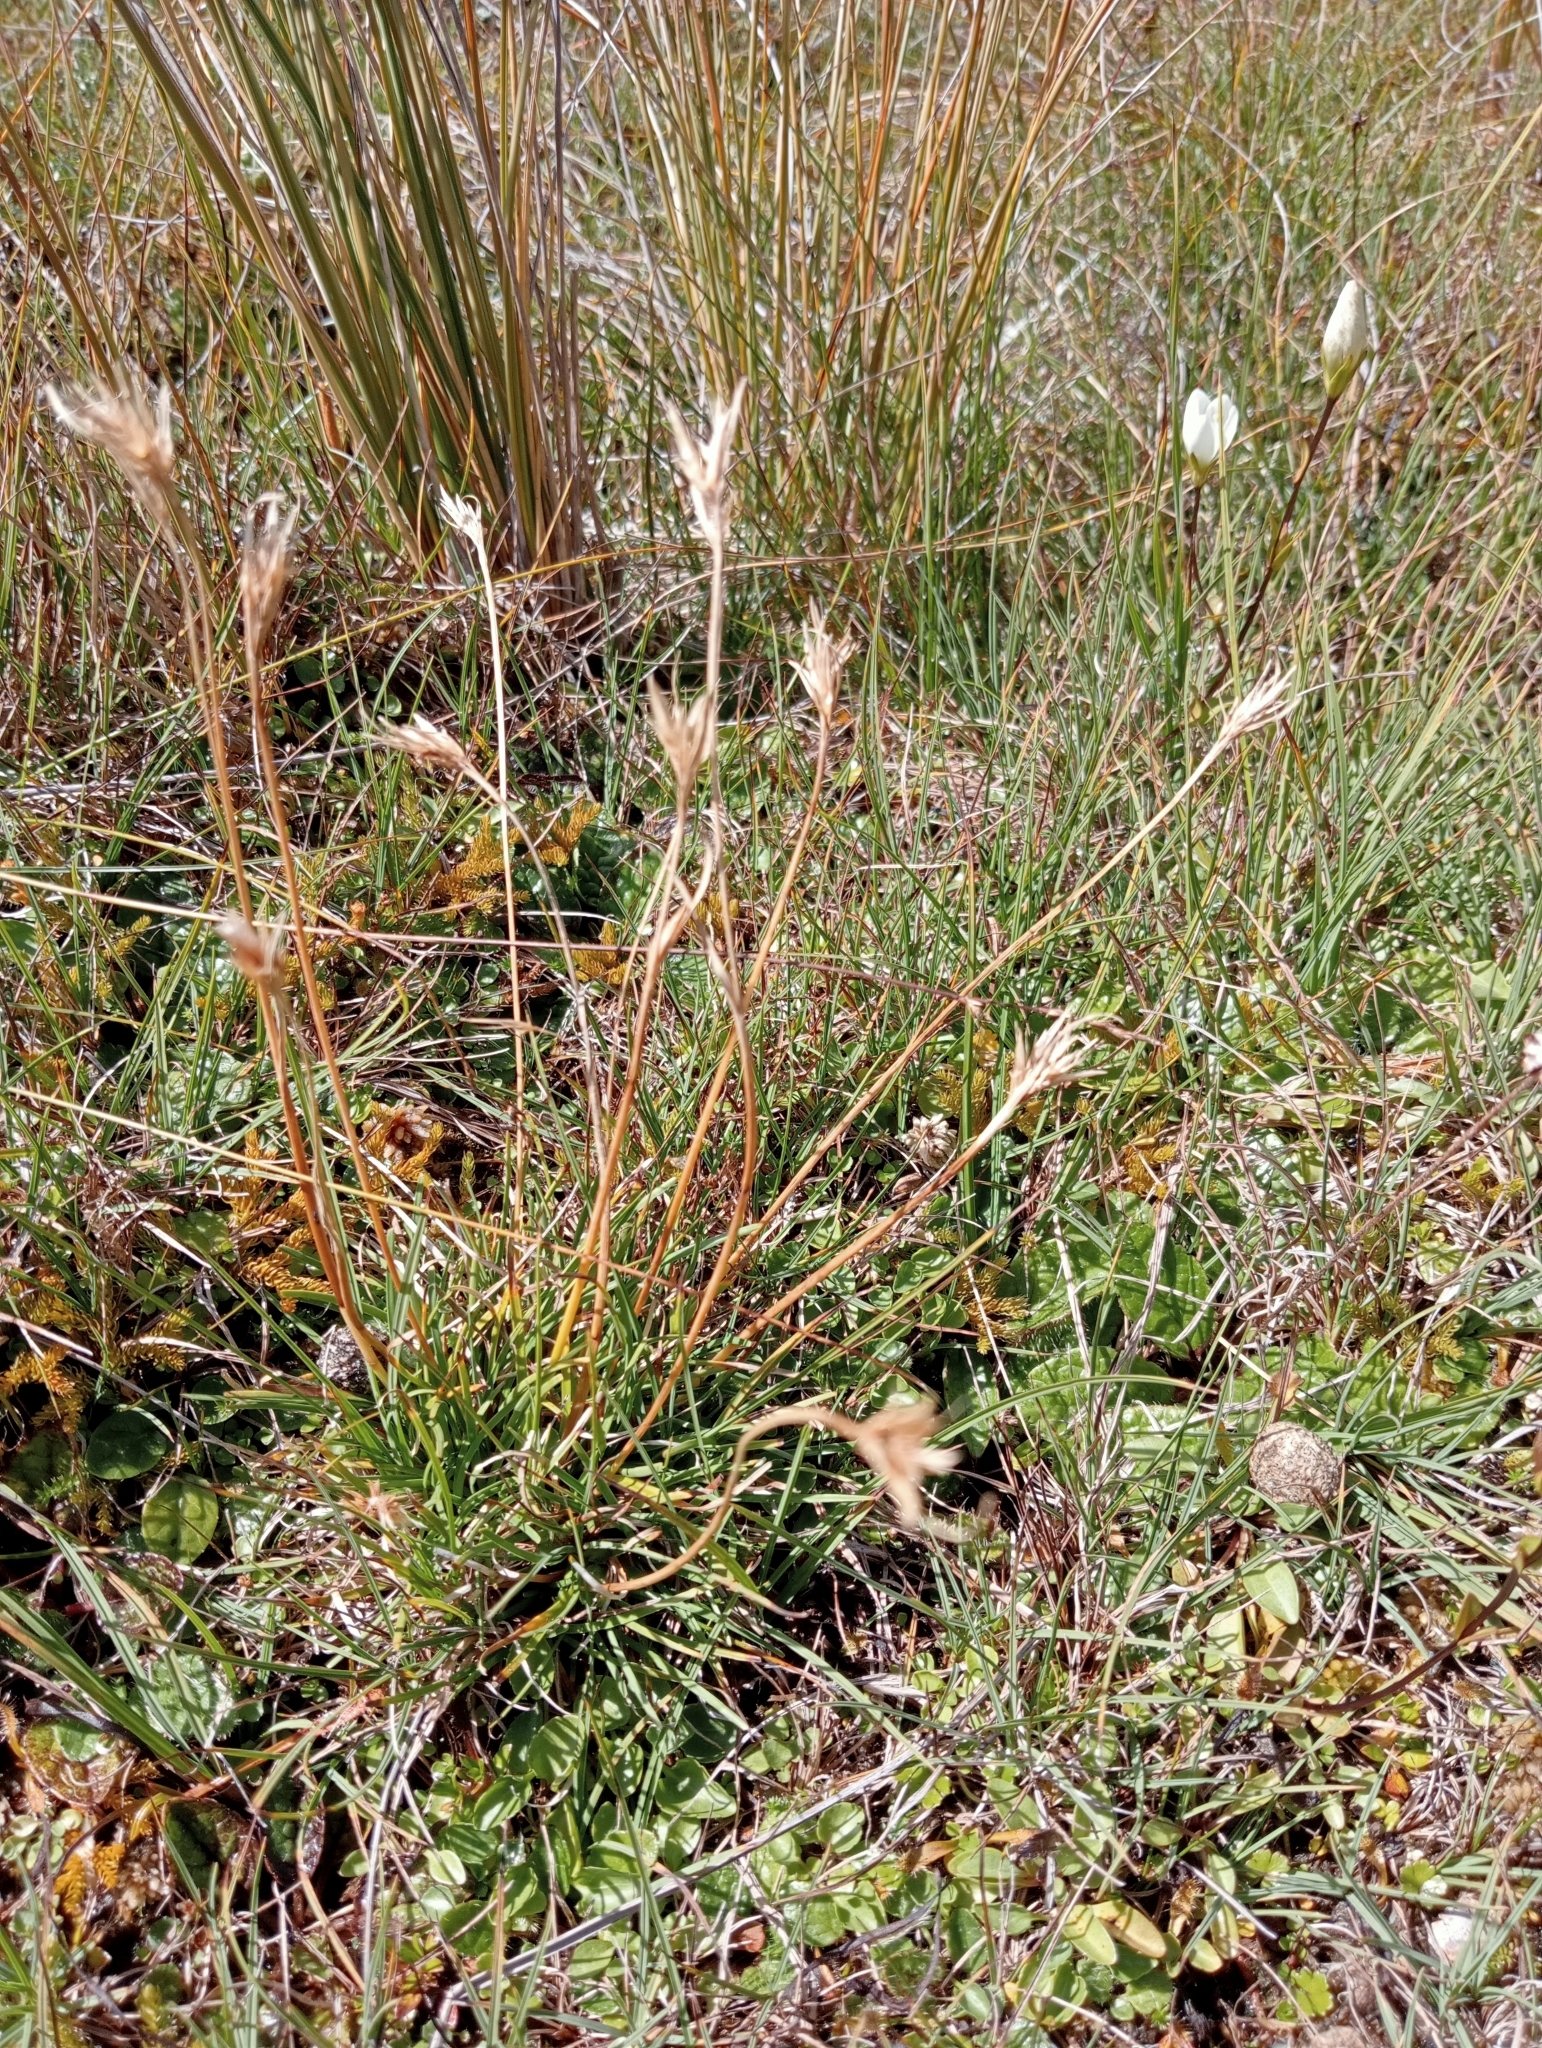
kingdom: Plantae
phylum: Tracheophyta
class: Liliopsida
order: Poales
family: Cyperaceae
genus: Carpha
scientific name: Carpha alpina
